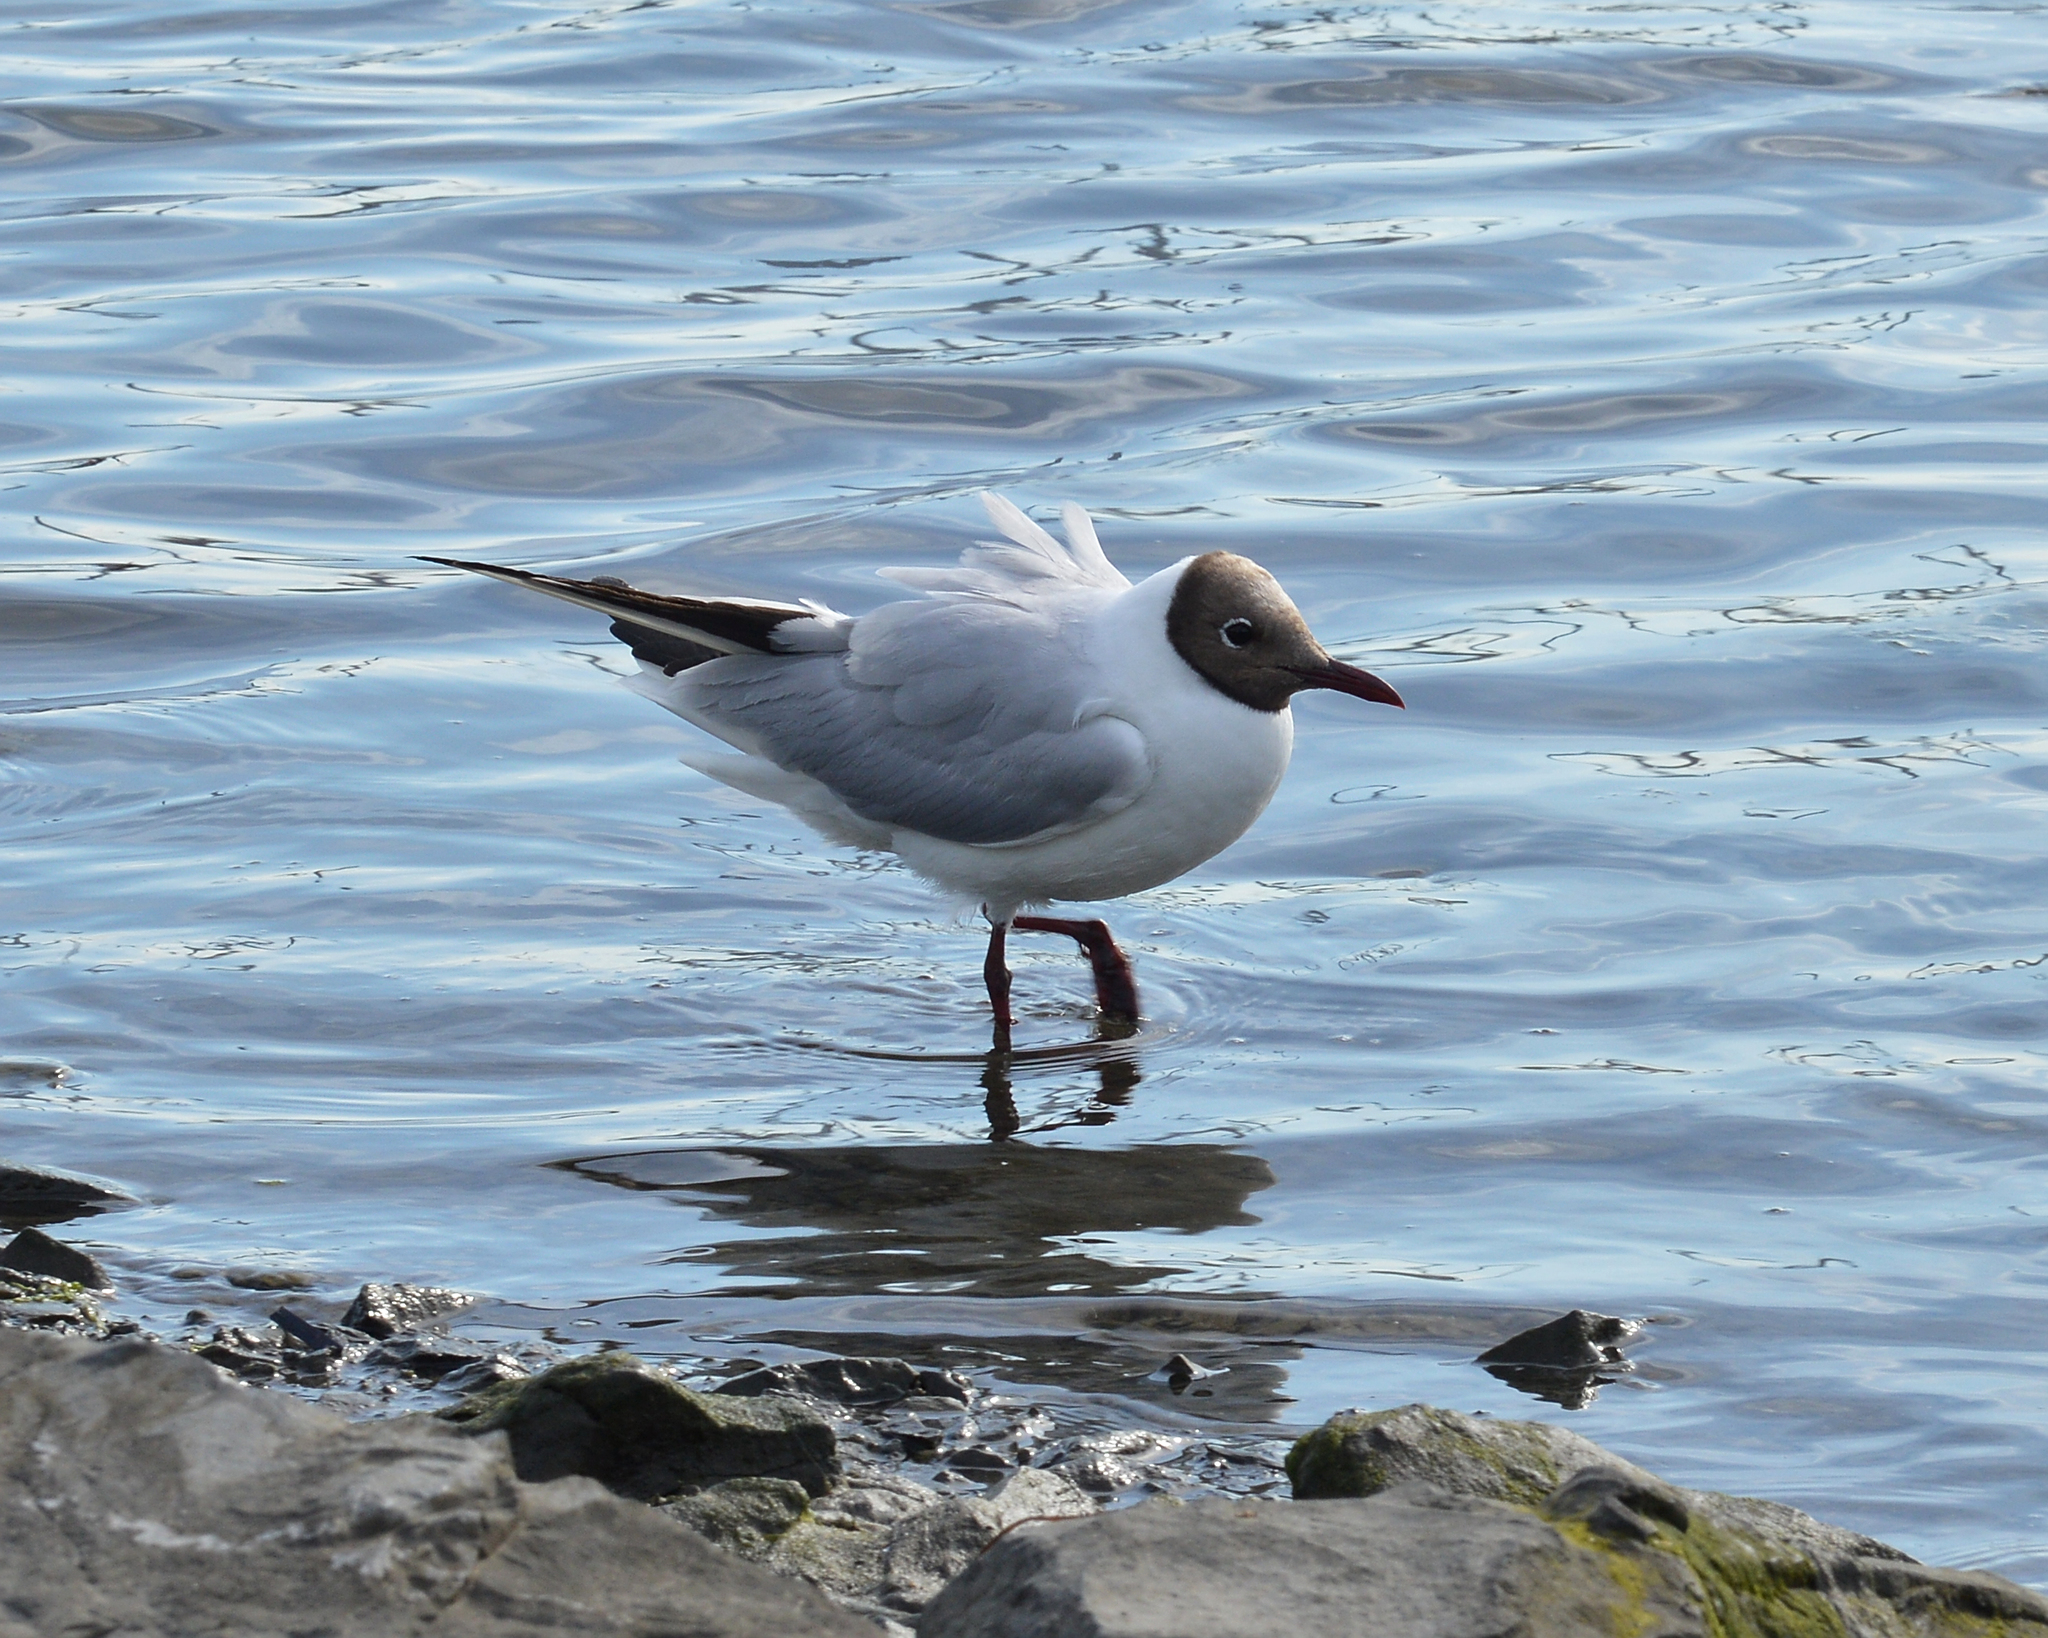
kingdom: Animalia
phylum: Chordata
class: Aves
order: Charadriiformes
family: Laridae
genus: Chroicocephalus
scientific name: Chroicocephalus ridibundus
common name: Black-headed gull
